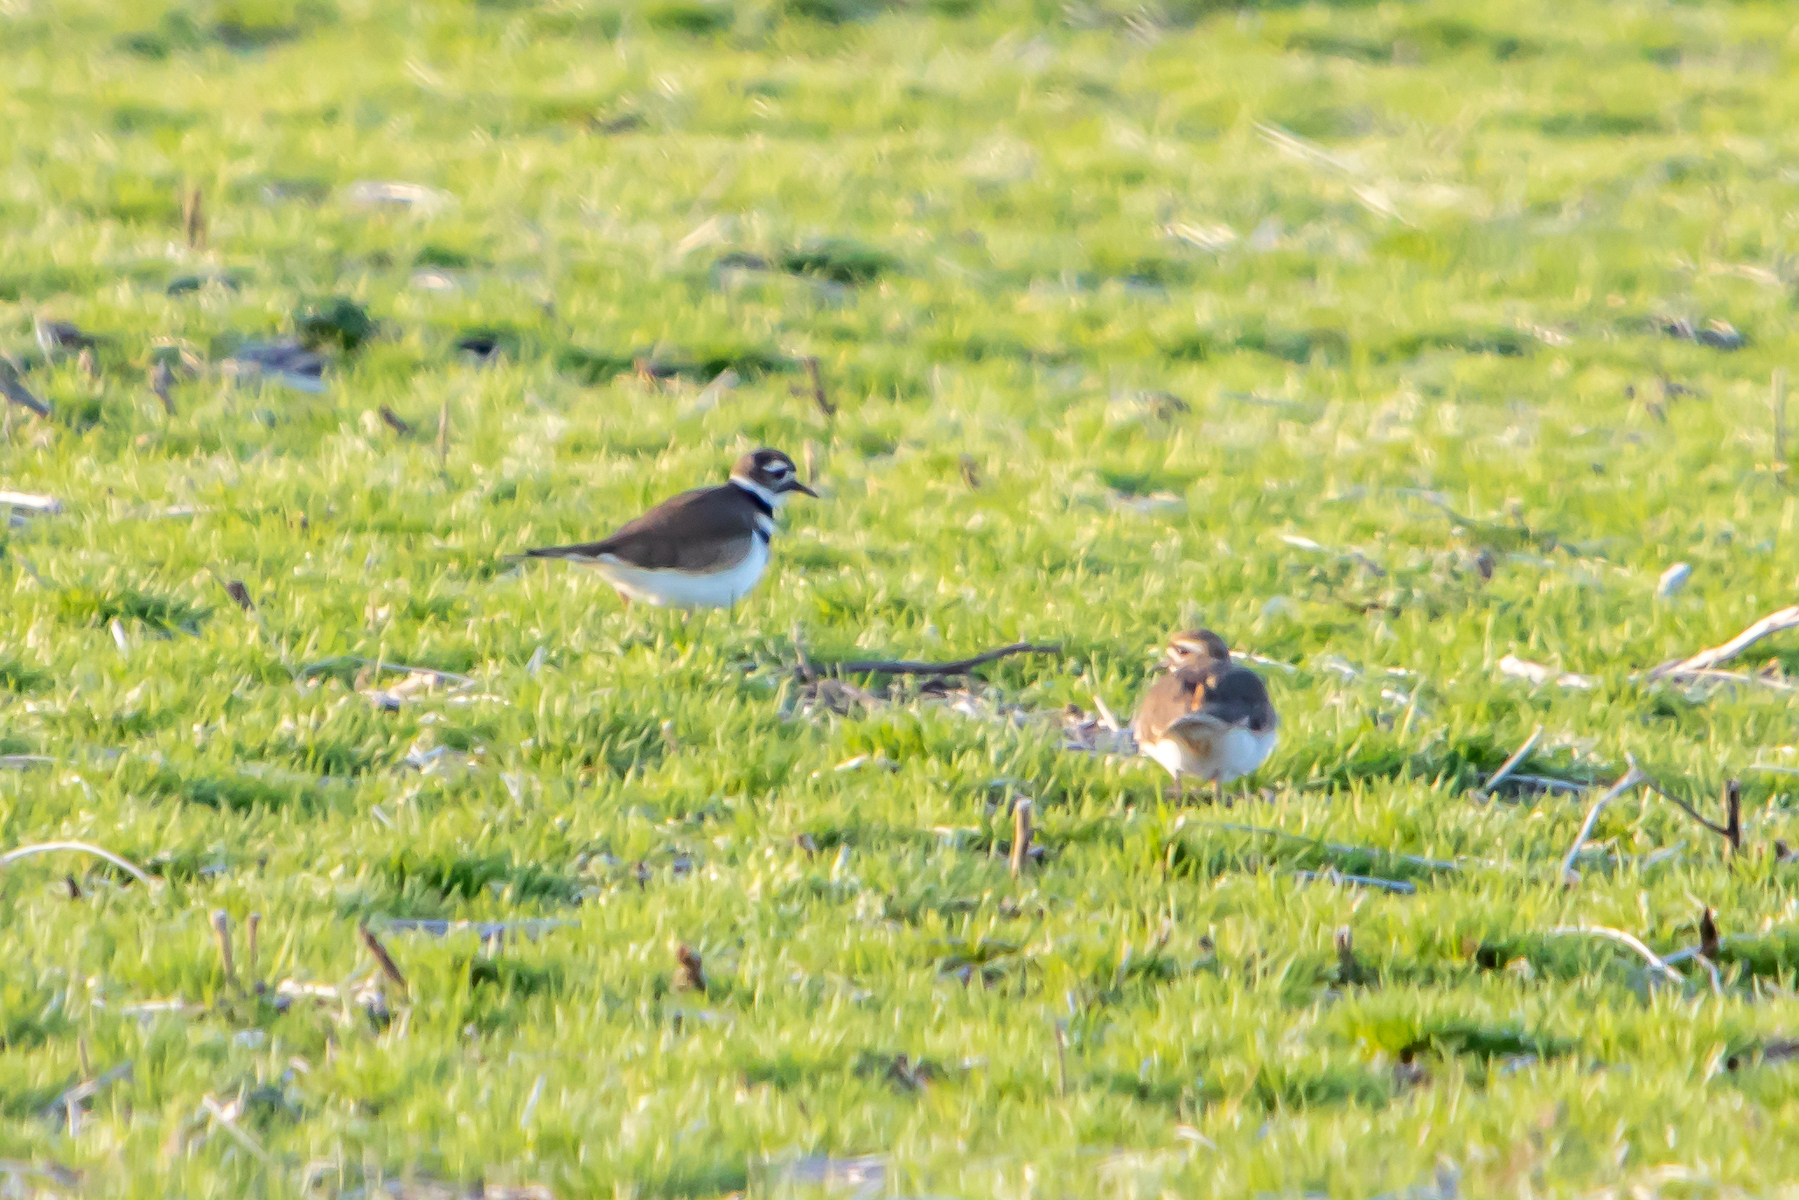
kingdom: Animalia
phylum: Chordata
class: Aves
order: Charadriiformes
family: Charadriidae
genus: Charadrius
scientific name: Charadrius vociferus
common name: Killdeer
